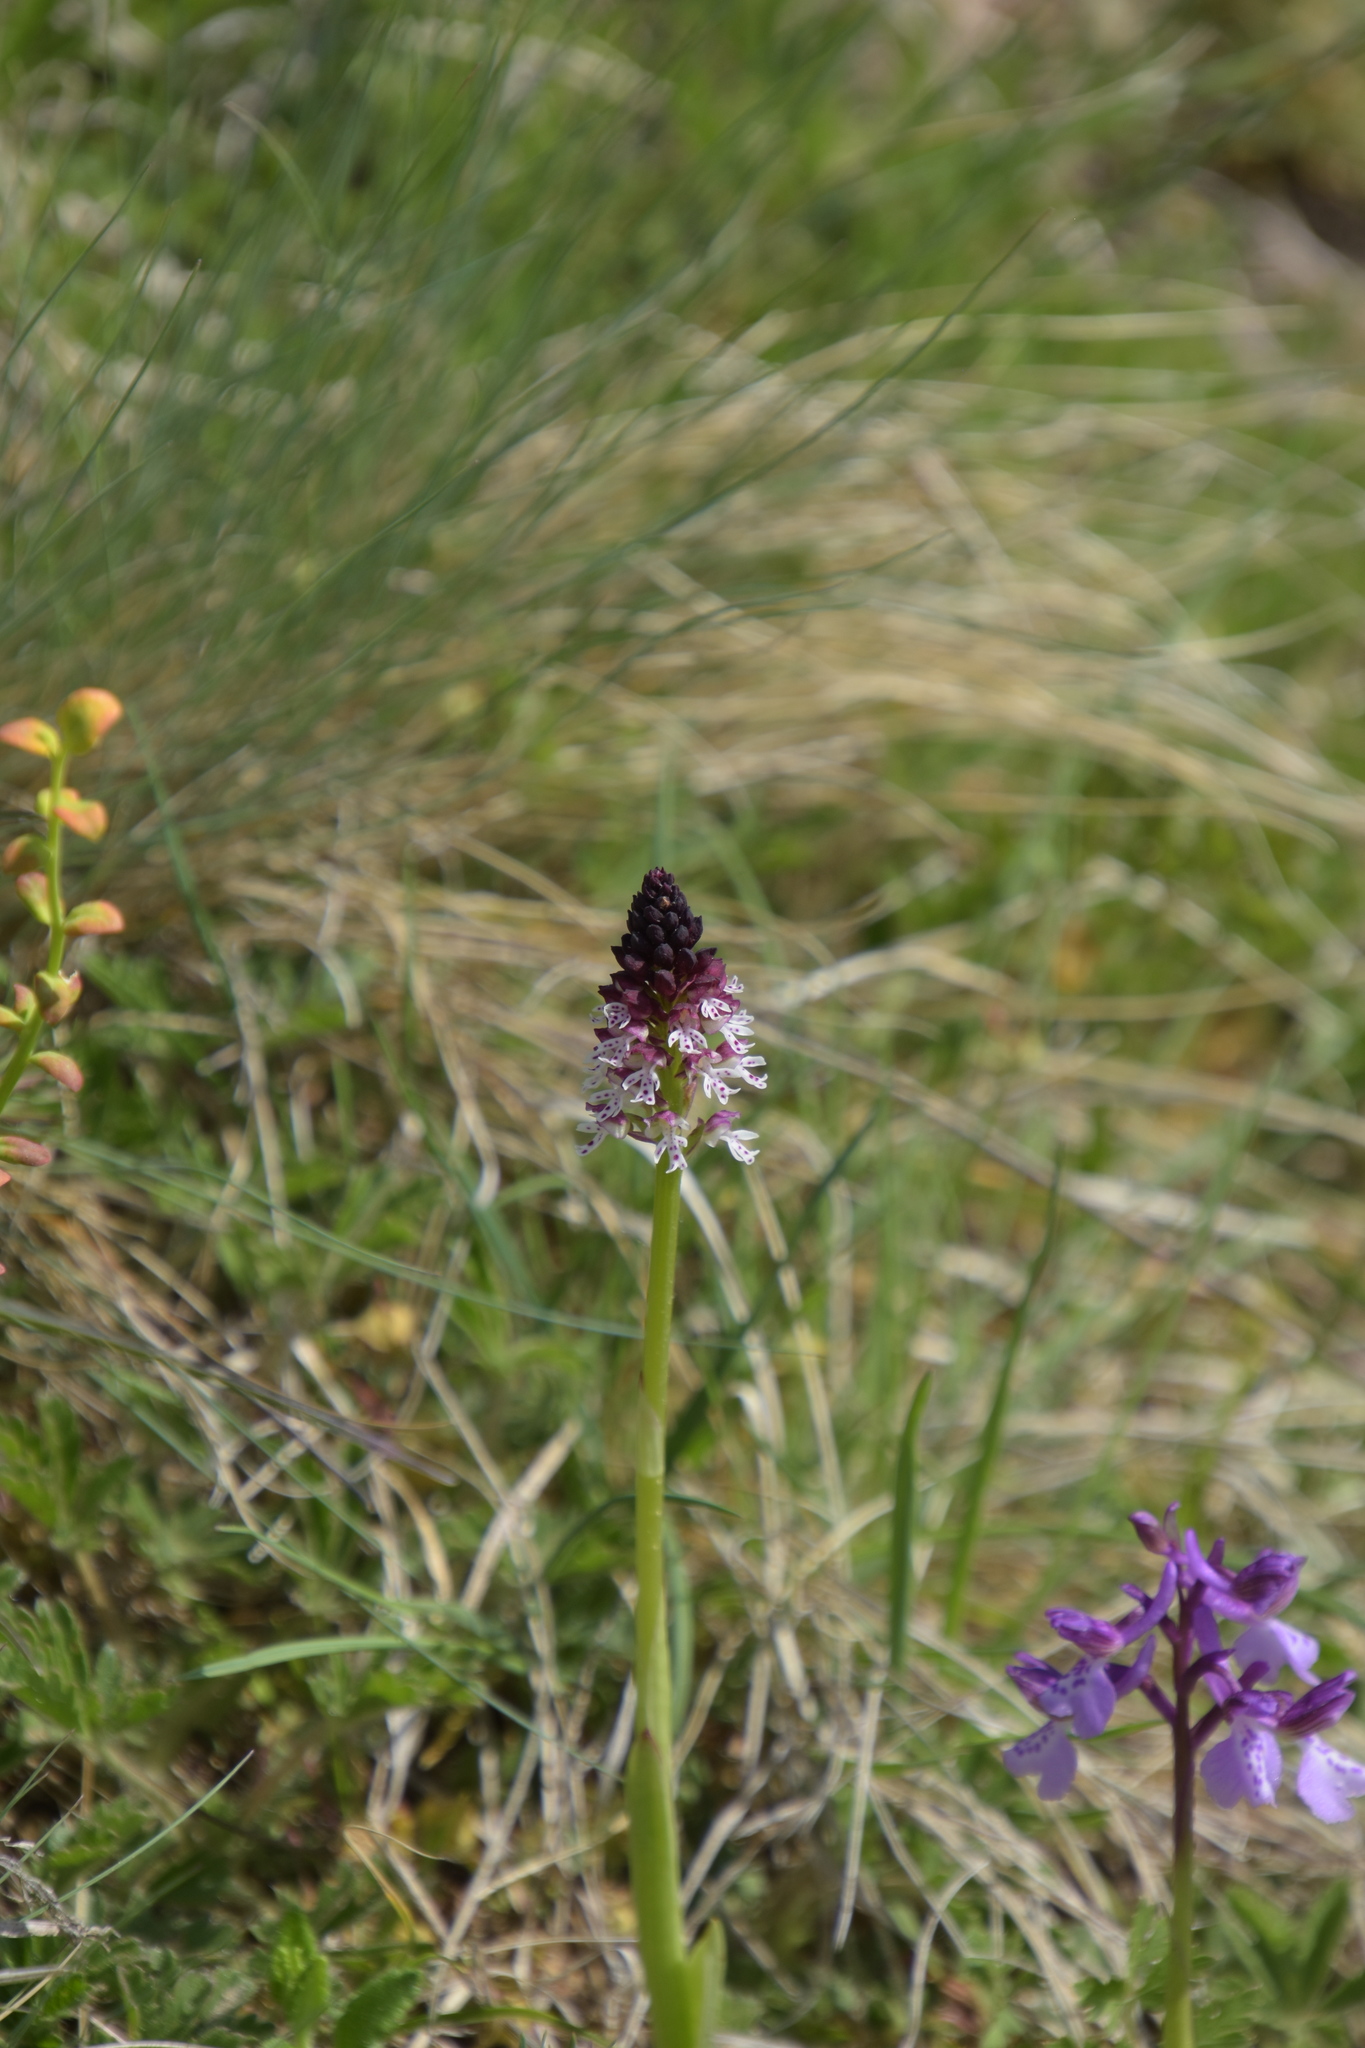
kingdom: Plantae
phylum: Tracheophyta
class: Liliopsida
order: Asparagales
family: Orchidaceae
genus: Neotinea
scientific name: Neotinea ustulata
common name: Burnt orchid
